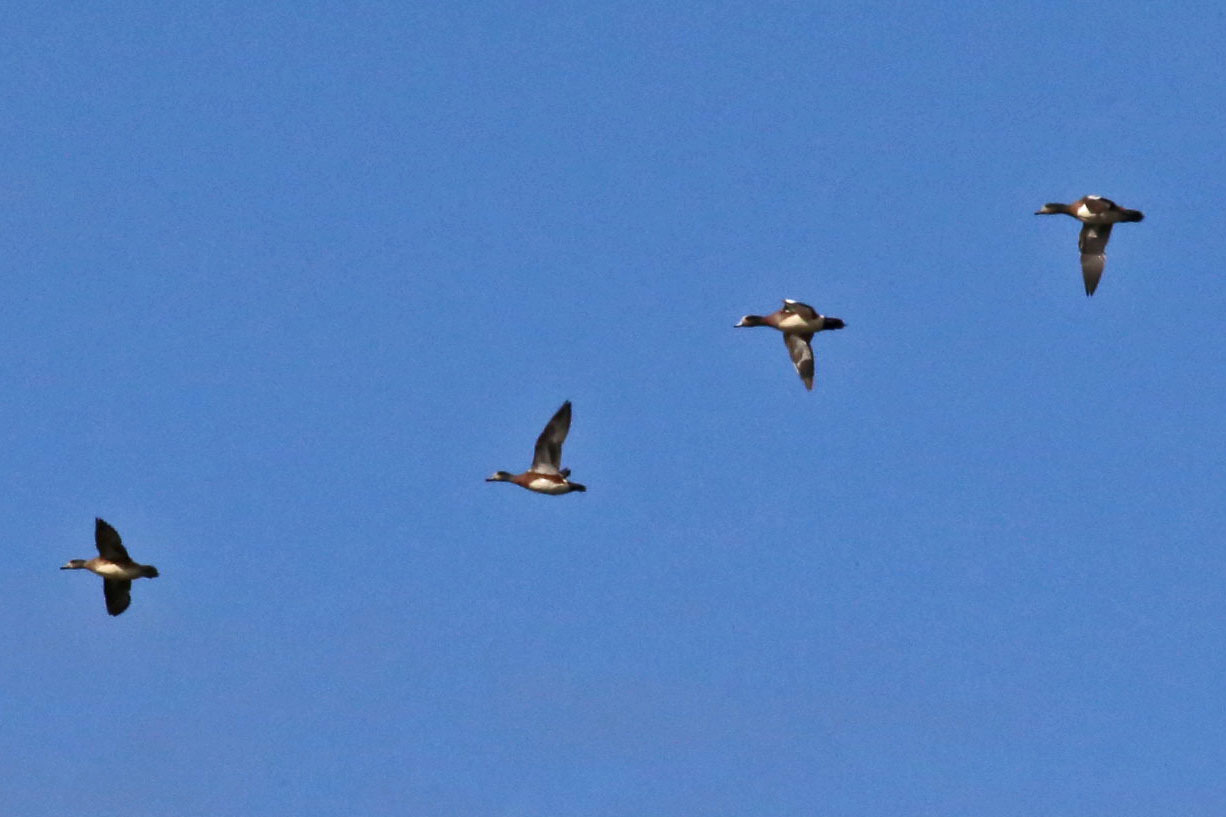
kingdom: Animalia
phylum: Chordata
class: Aves
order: Anseriformes
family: Anatidae
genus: Mareca
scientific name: Mareca americana
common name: American wigeon
